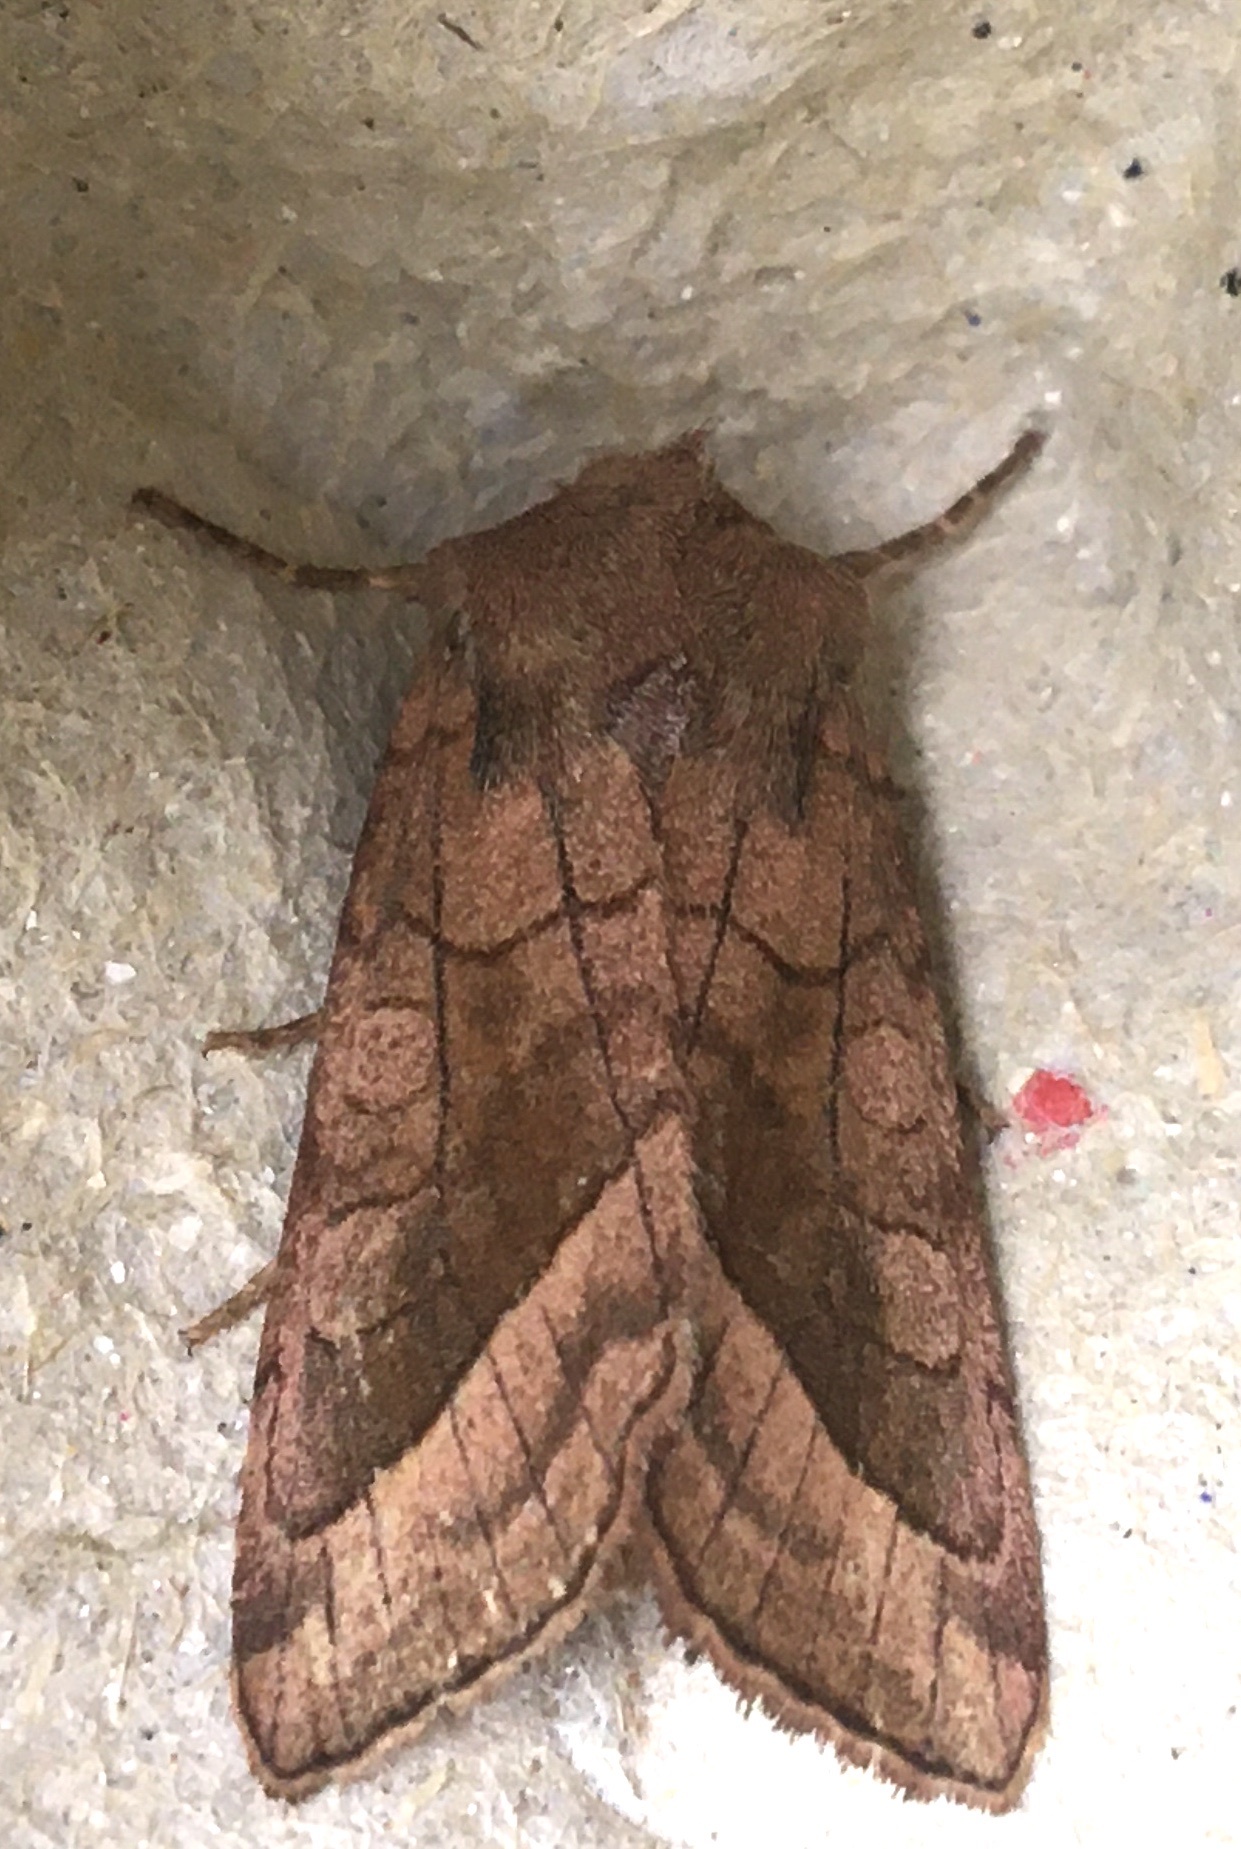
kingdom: Animalia
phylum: Arthropoda
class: Insecta
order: Lepidoptera
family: Noctuidae
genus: Hydraecia
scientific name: Hydraecia micacea
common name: Rosy rustic
